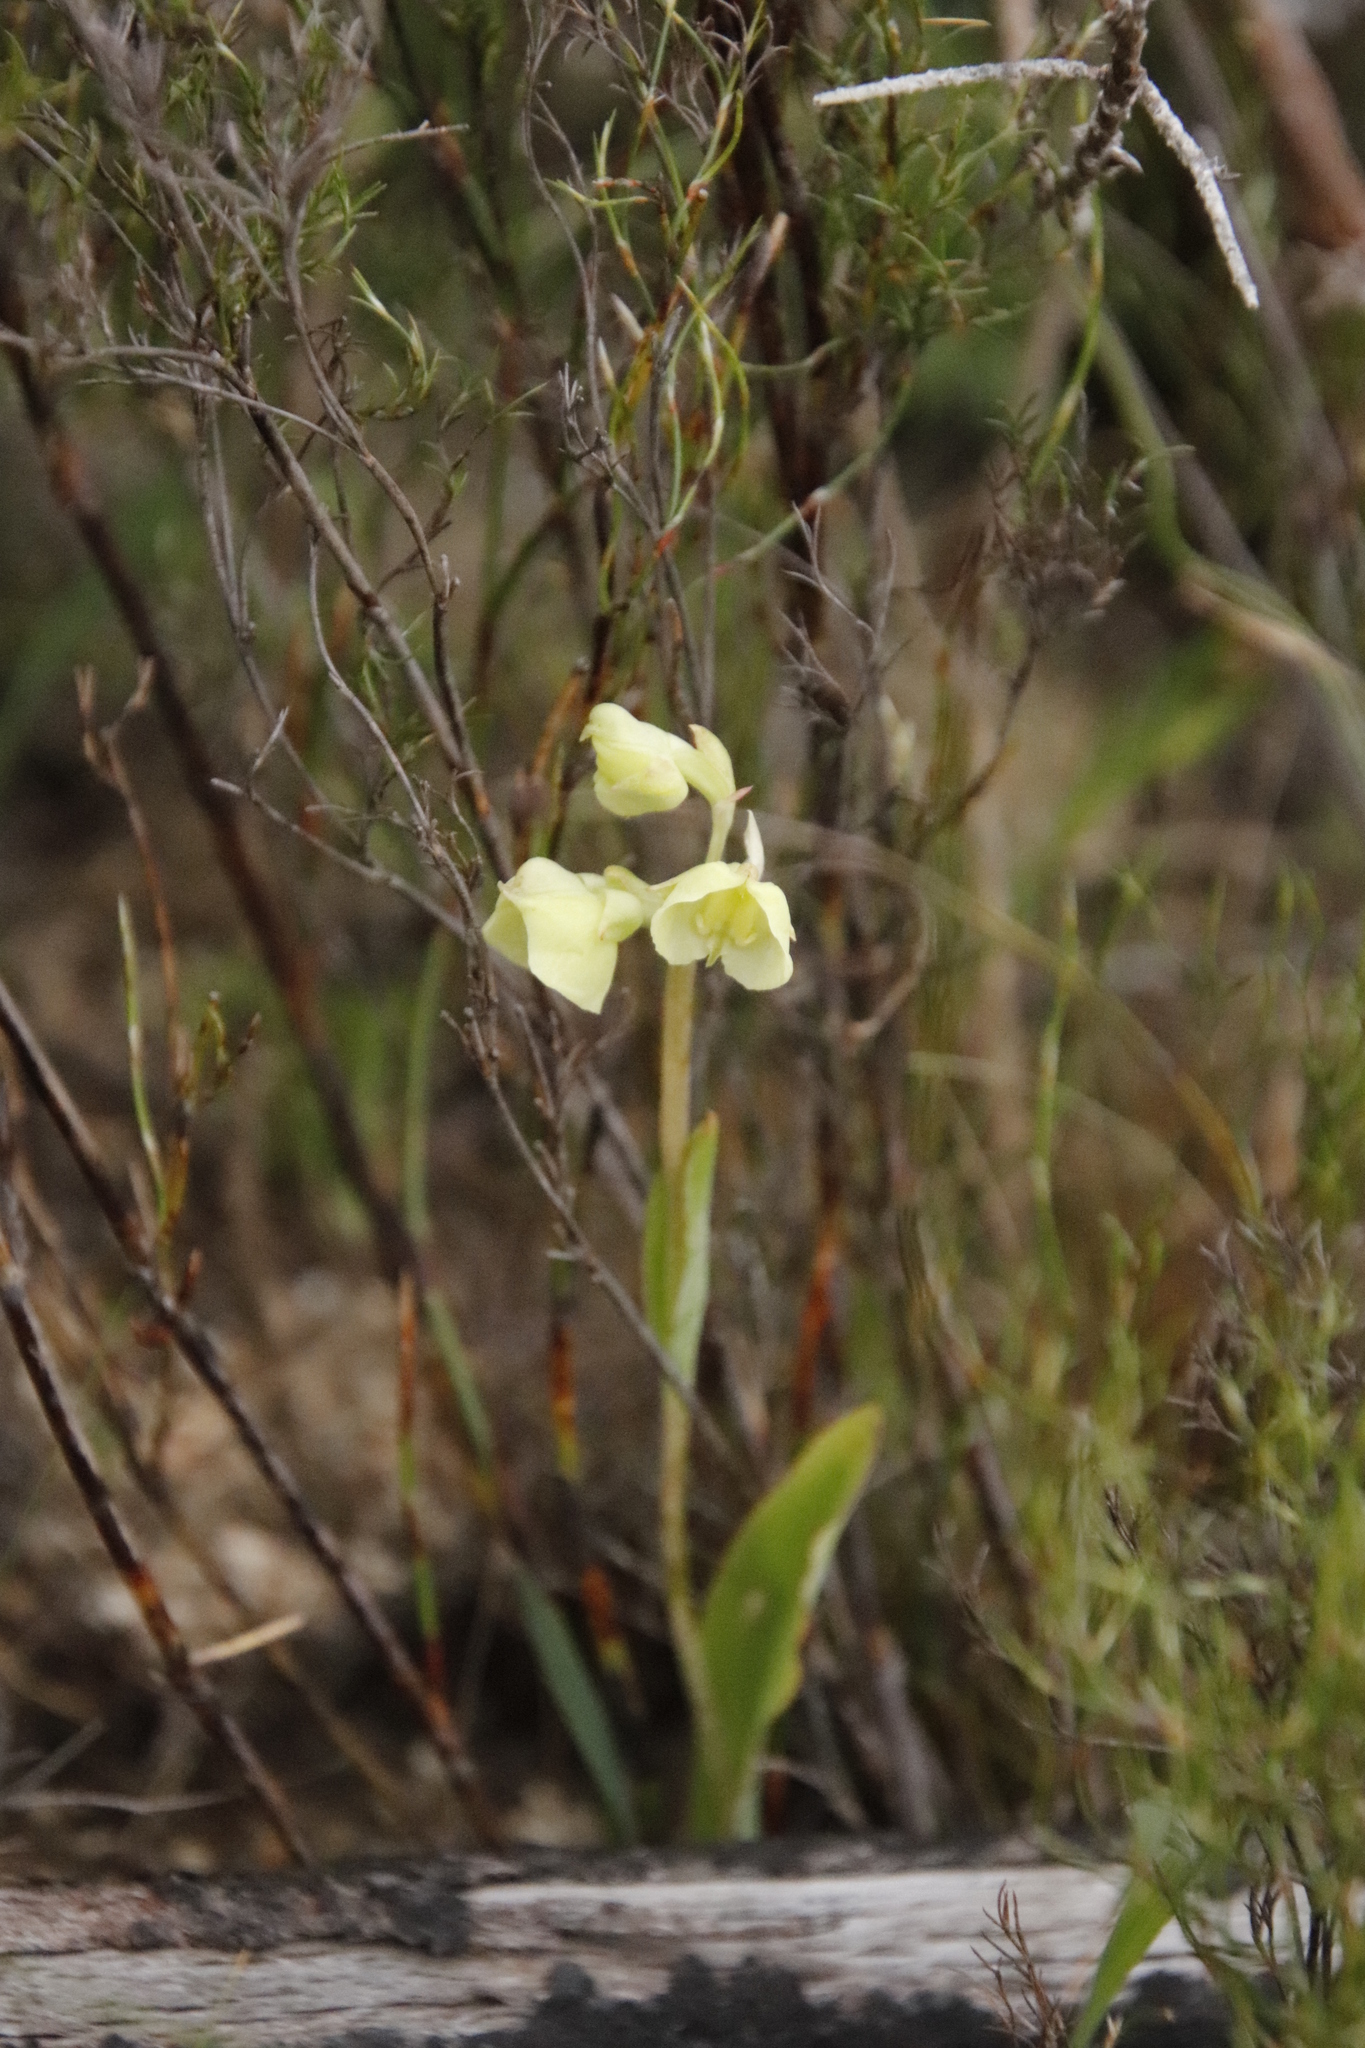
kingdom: Plantae
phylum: Tracheophyta
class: Liliopsida
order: Asparagales
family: Orchidaceae
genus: Pterygodium
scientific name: Pterygodium catholicum
